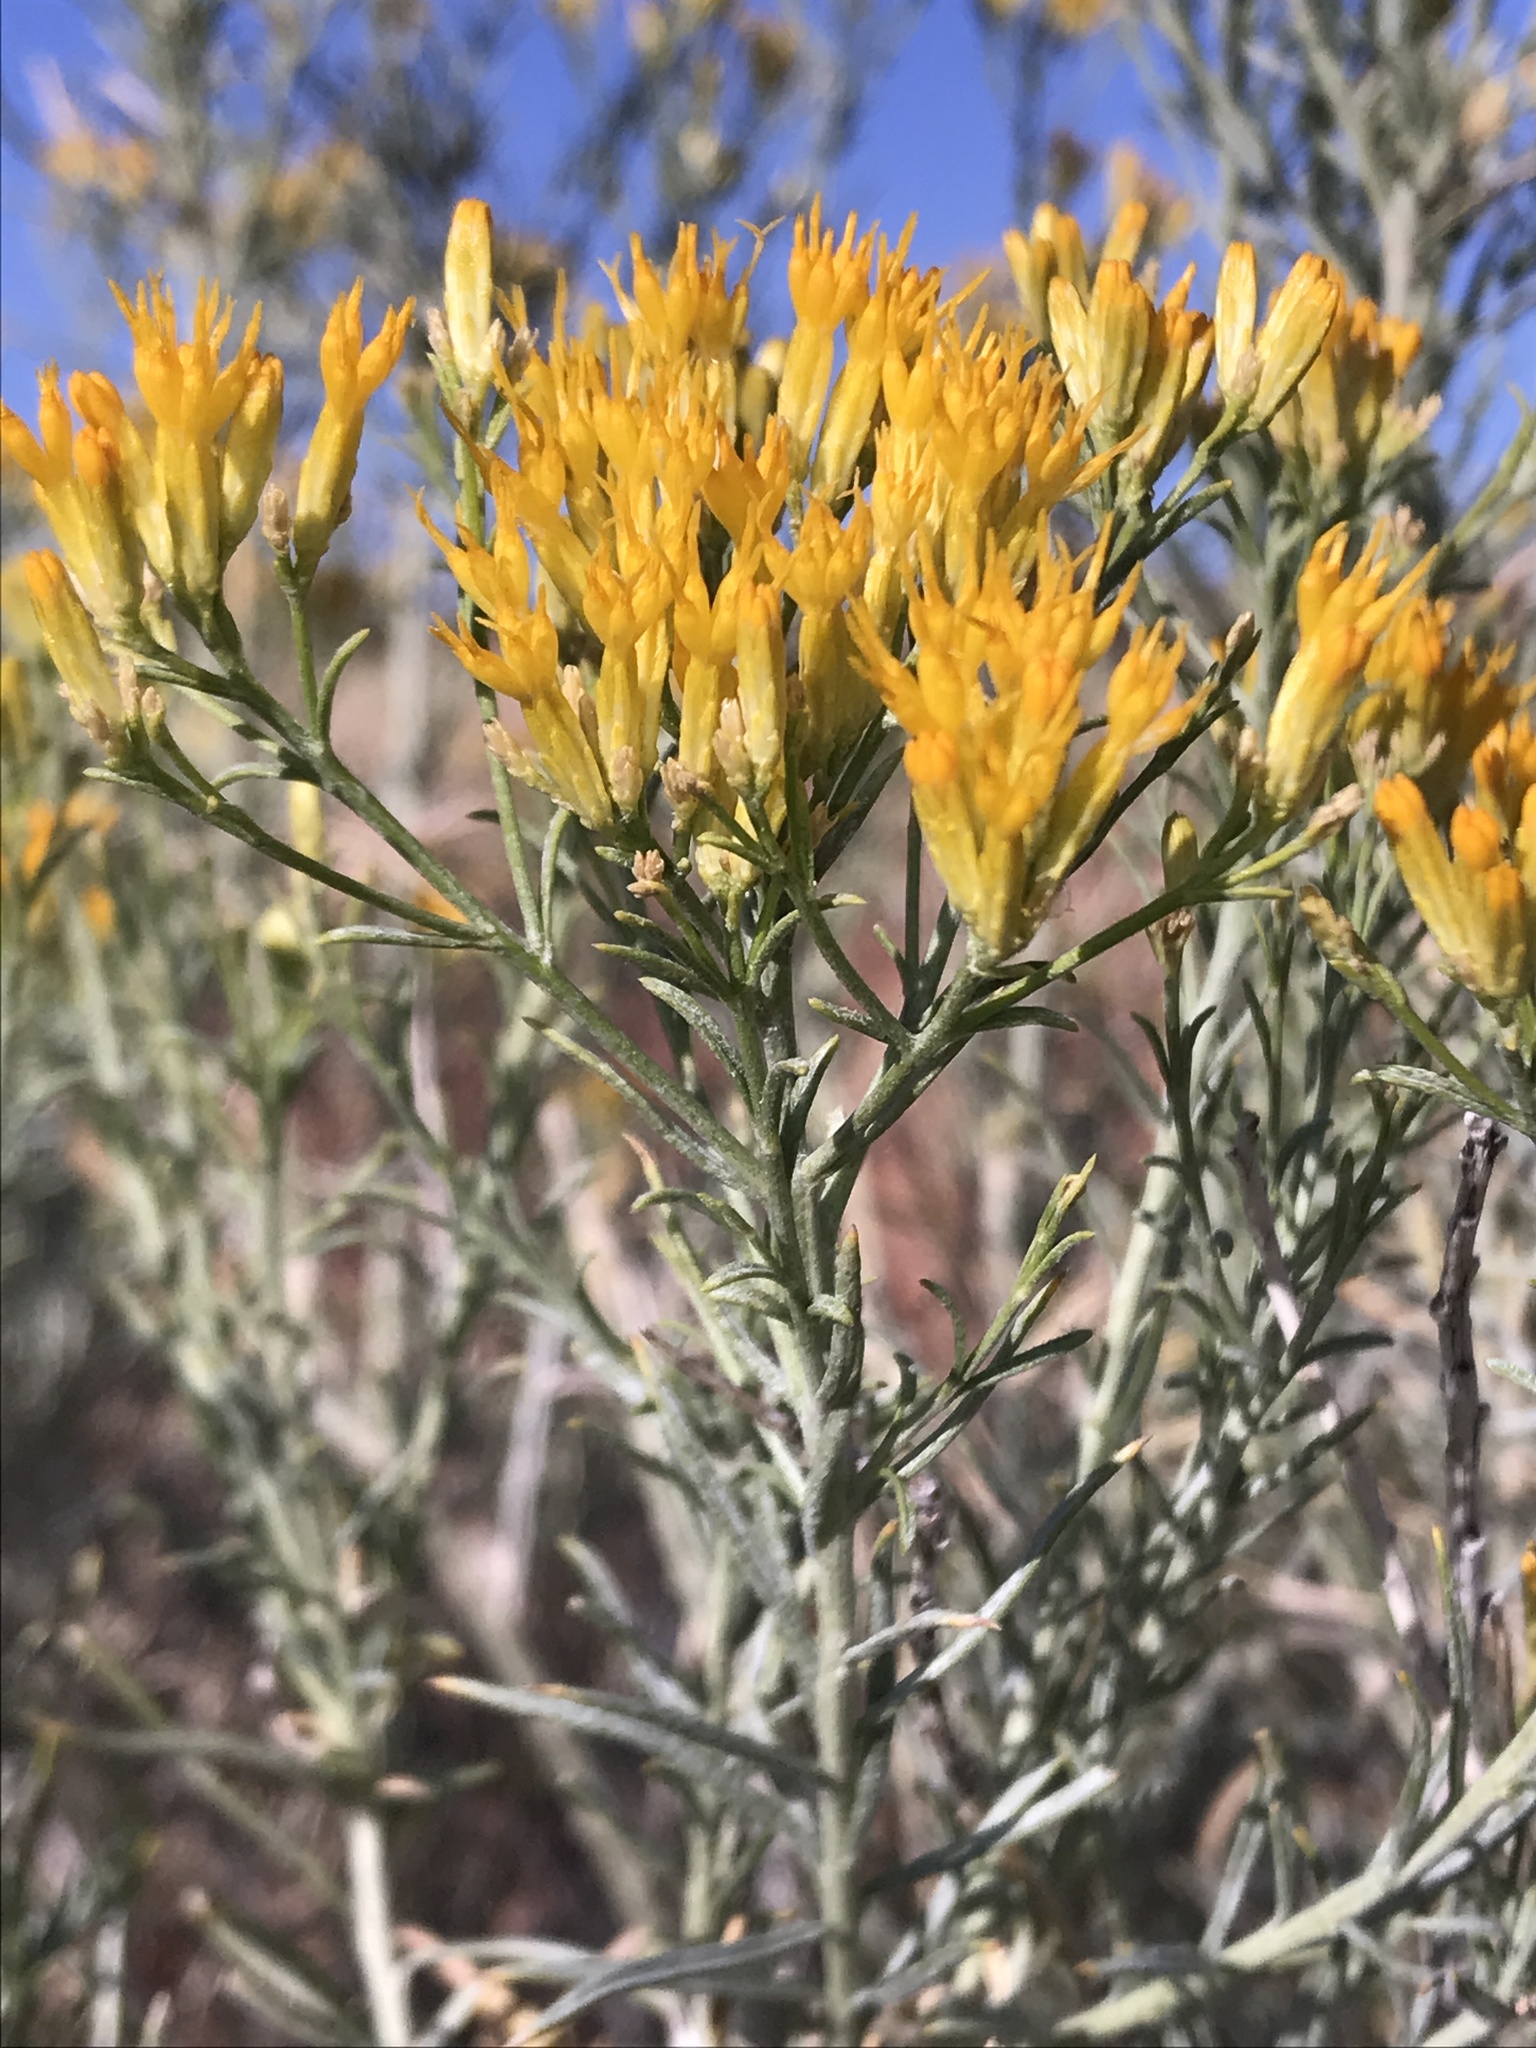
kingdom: Plantae
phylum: Tracheophyta
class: Magnoliopsida
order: Asterales
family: Asteraceae
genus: Ericameria
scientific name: Ericameria nauseosa
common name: Rubber rabbitbrush
